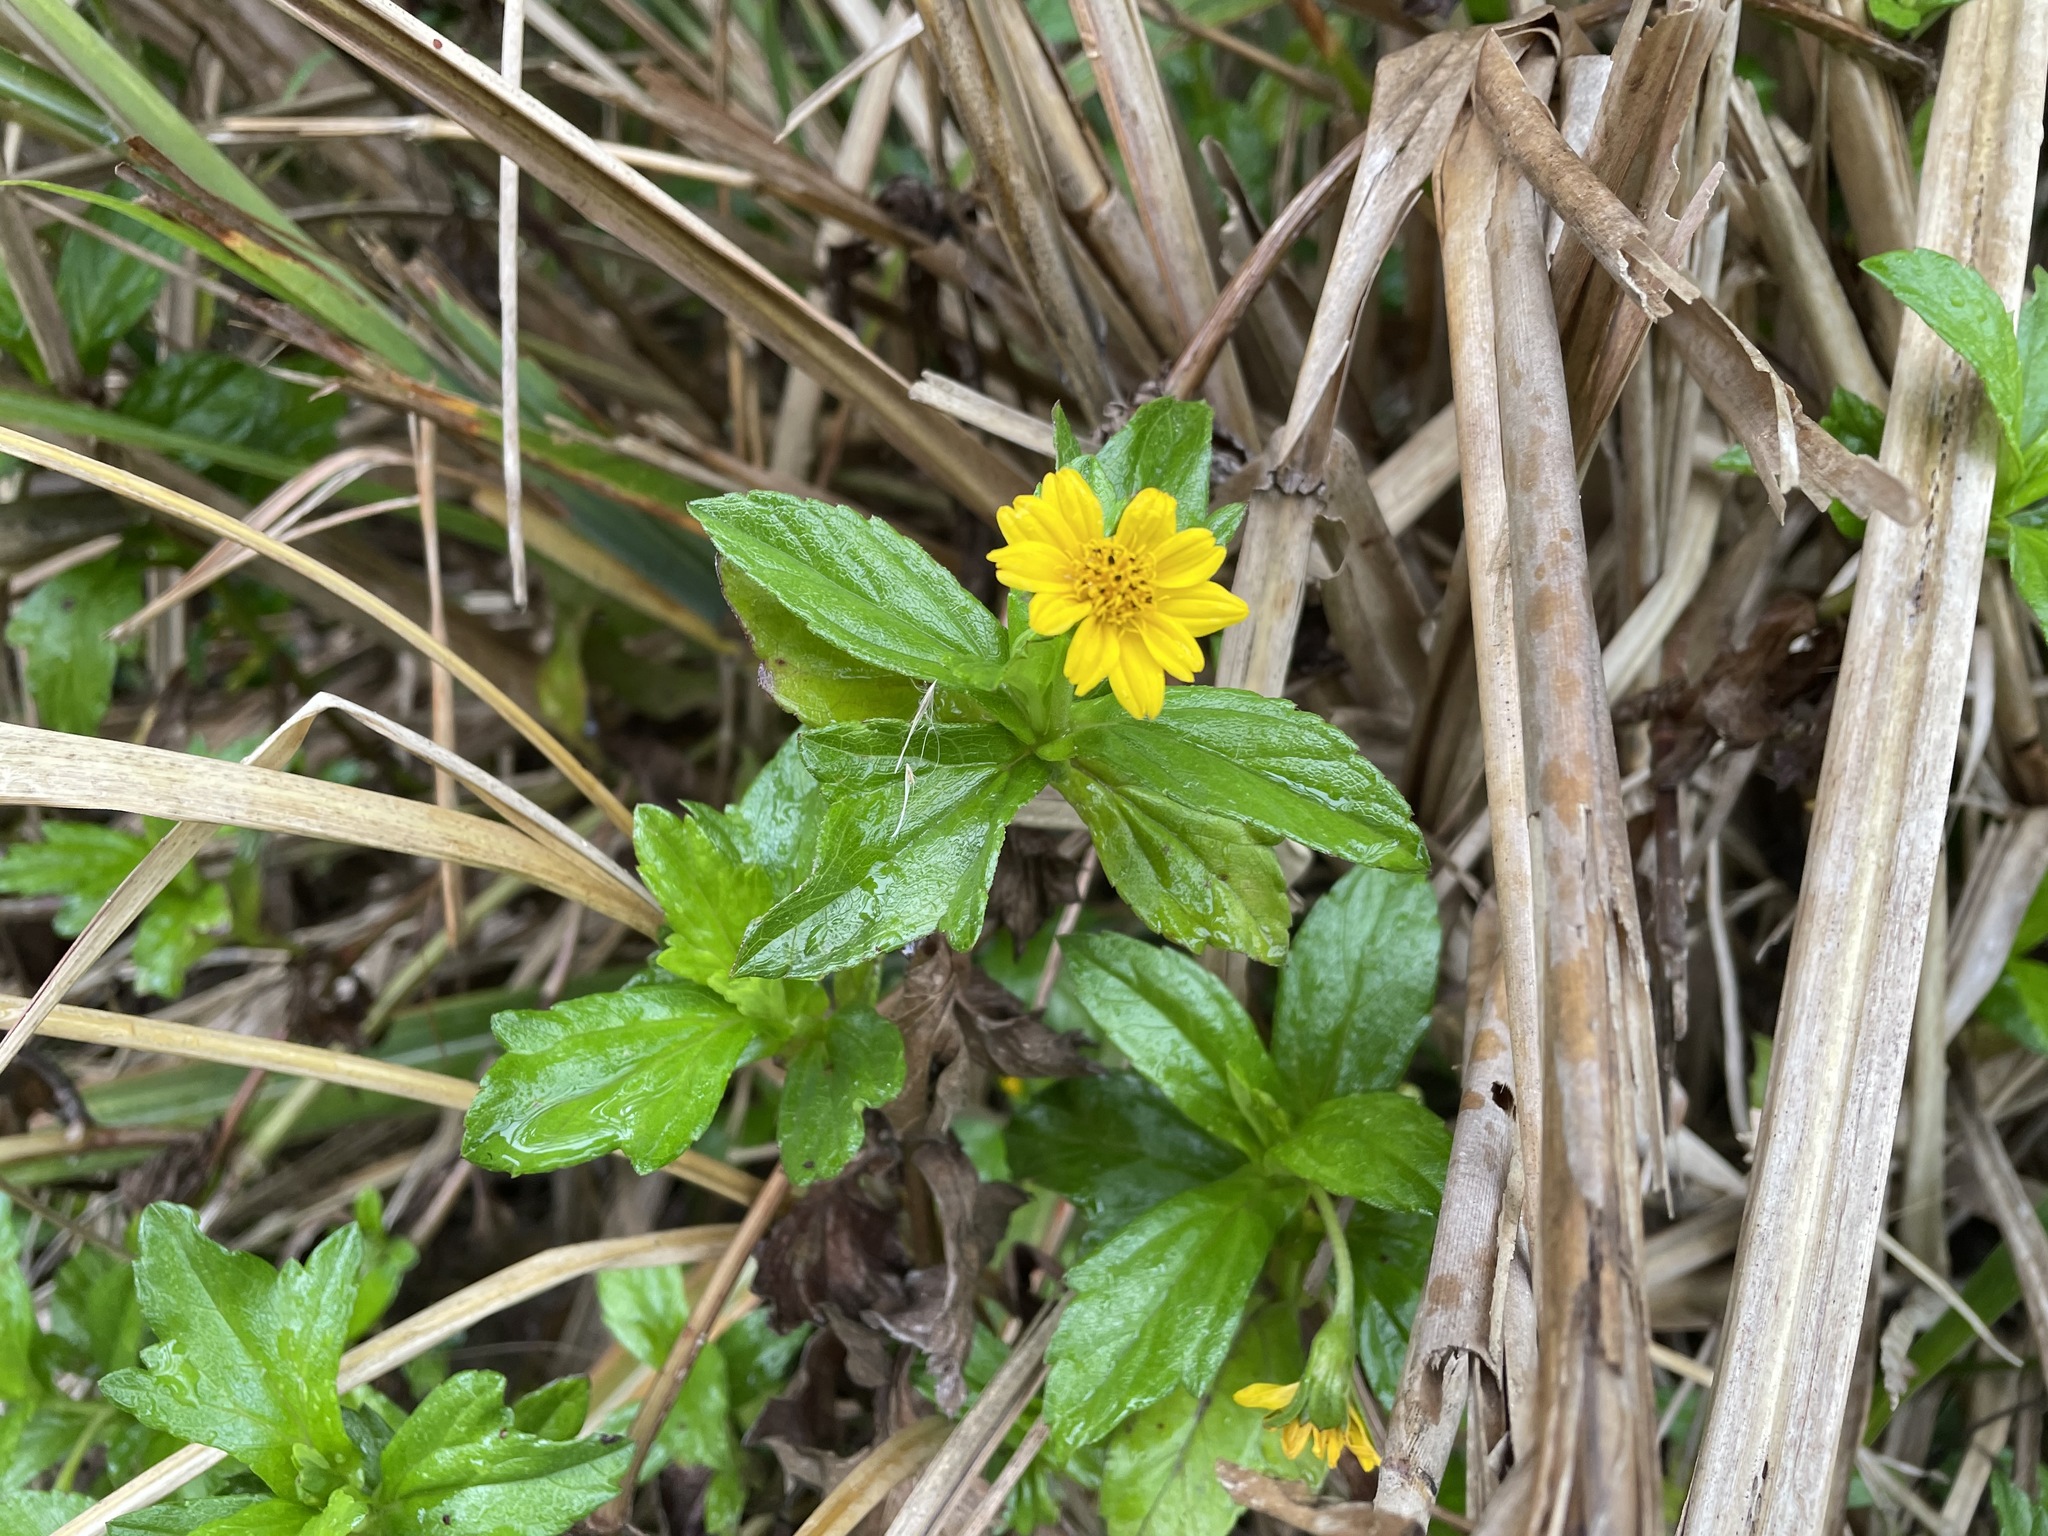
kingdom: Plantae
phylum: Tracheophyta
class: Magnoliopsida
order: Asterales
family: Asteraceae
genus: Sphagneticola
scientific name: Sphagneticola trilobata
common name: Bay biscayne creeping-oxeye
